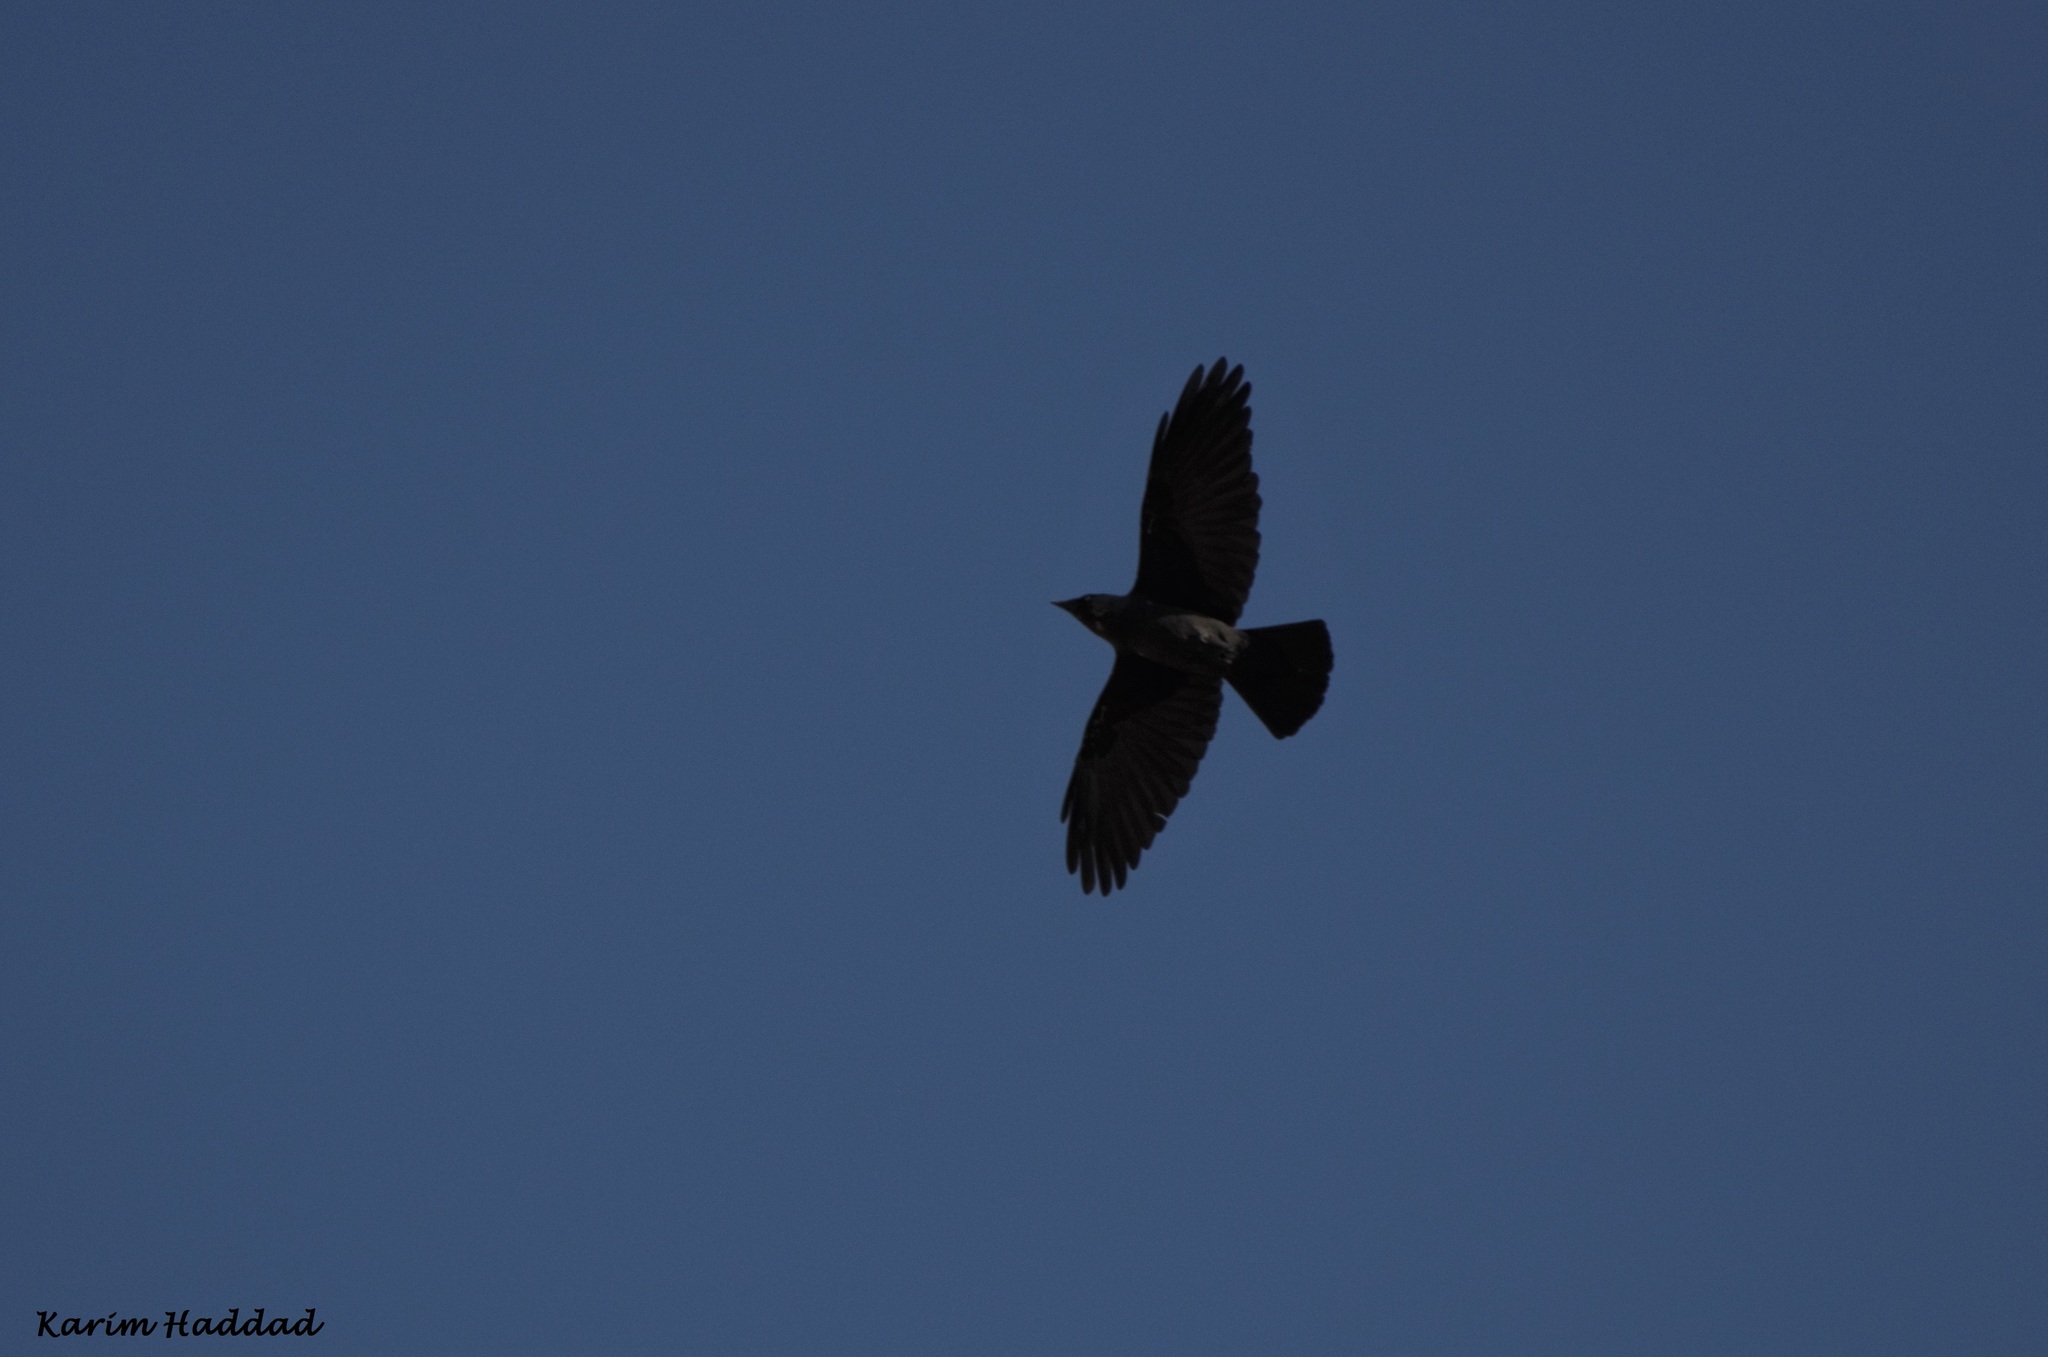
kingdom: Animalia
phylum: Chordata
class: Aves
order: Passeriformes
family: Corvidae
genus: Coloeus
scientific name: Coloeus monedula
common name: Western jackdaw
